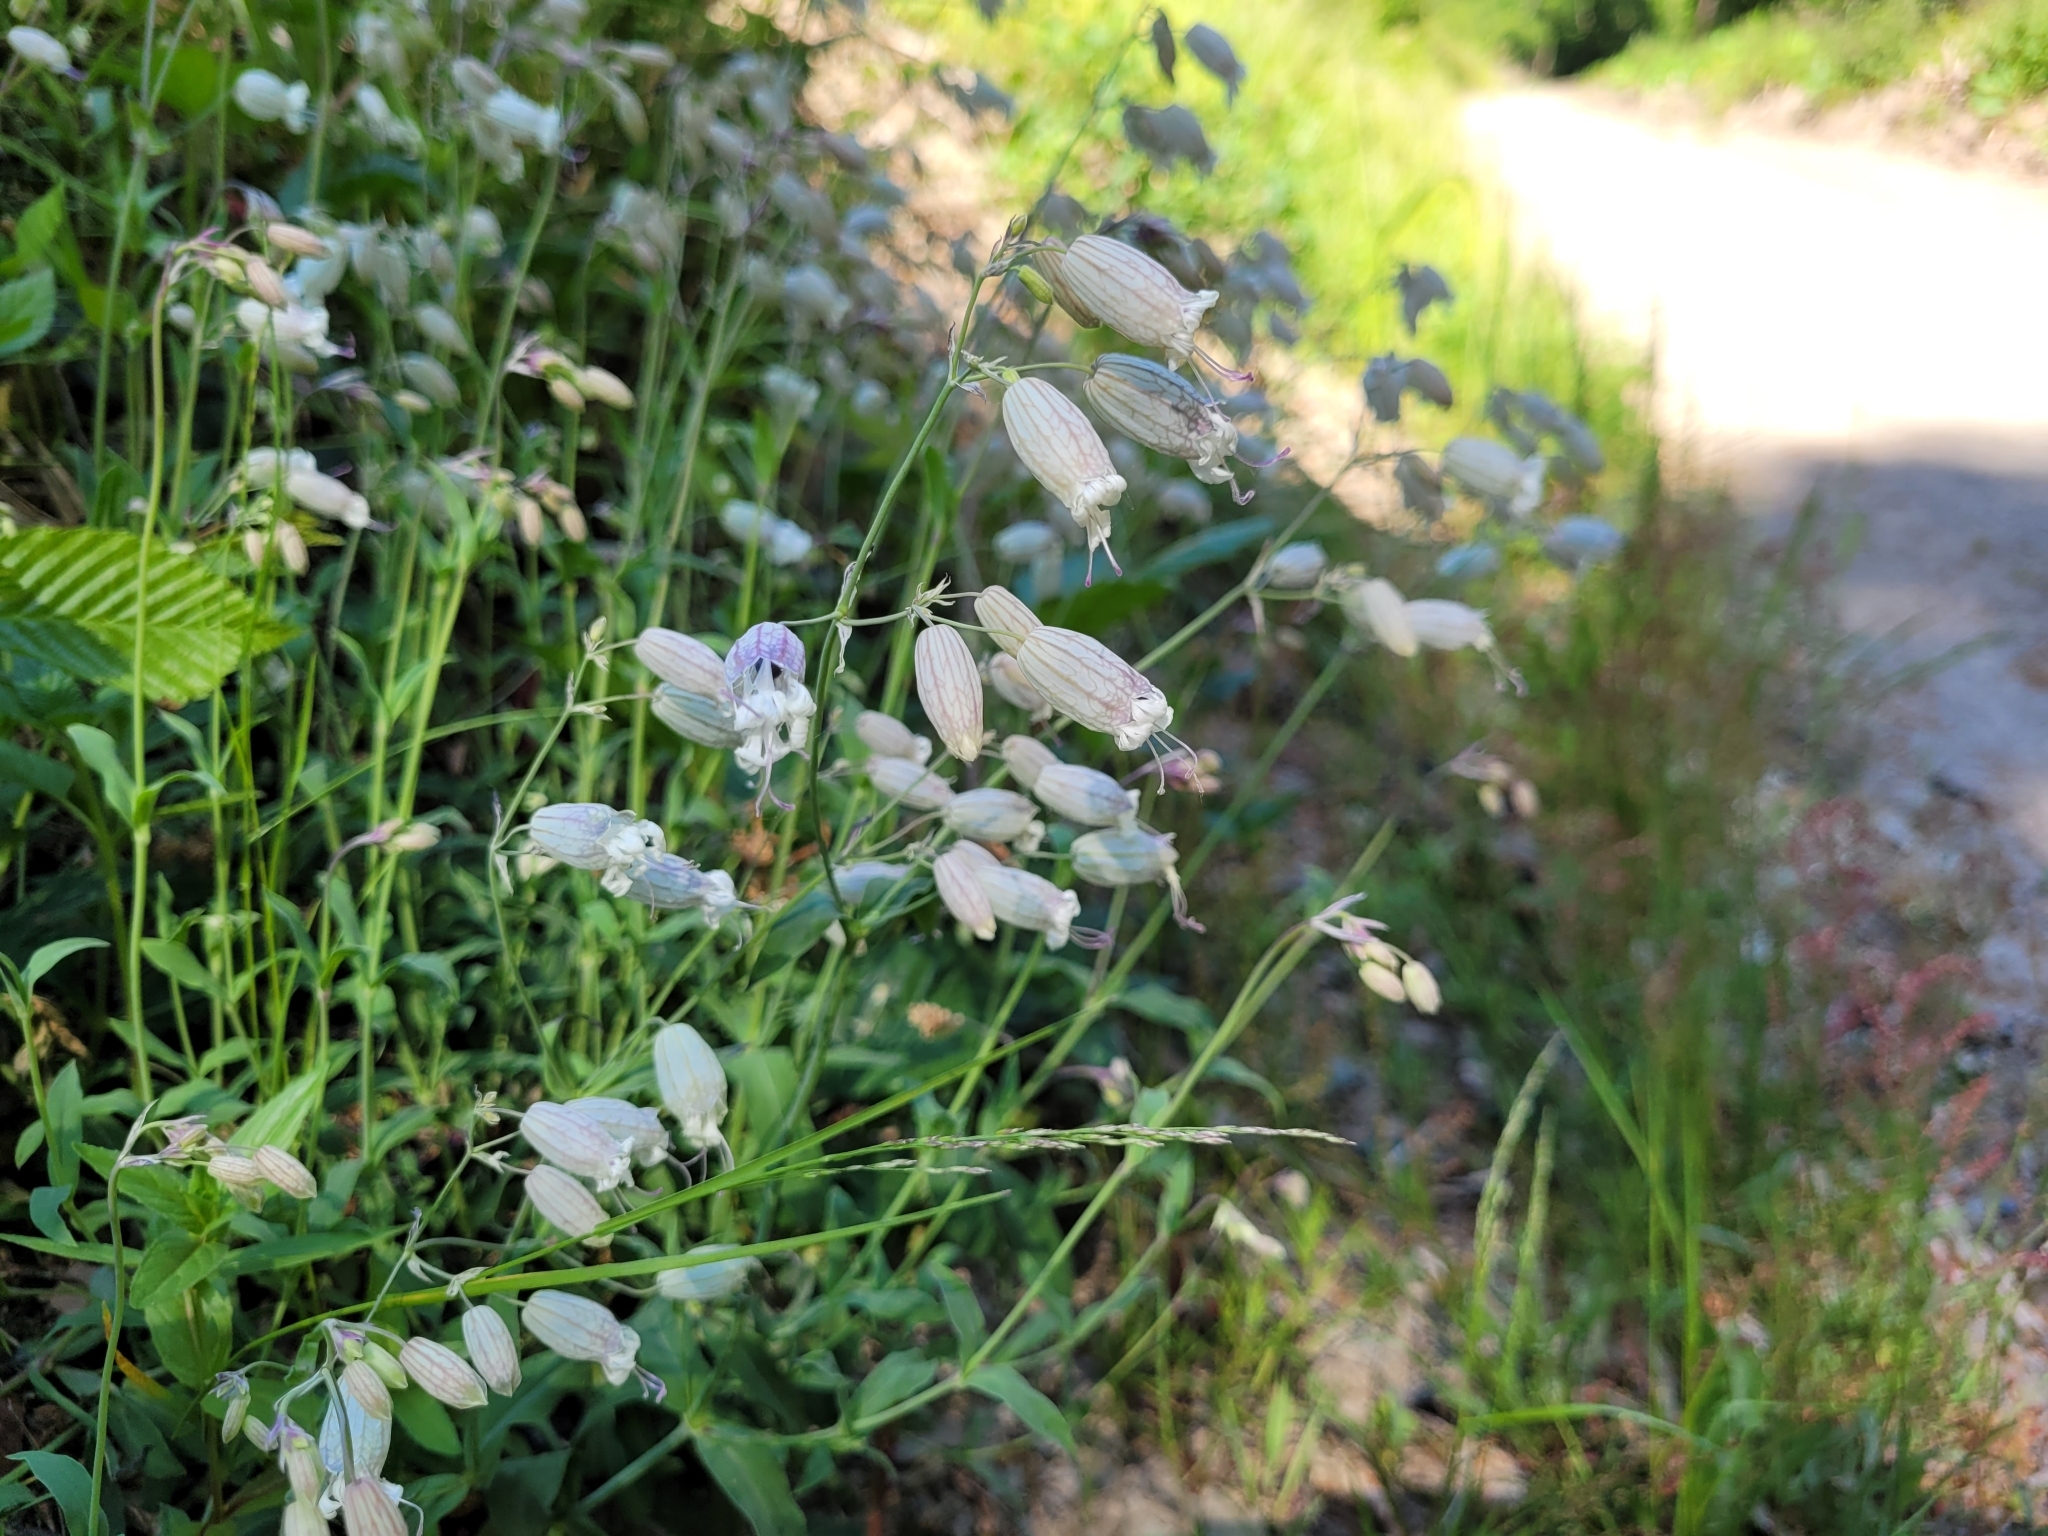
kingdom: Plantae
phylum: Tracheophyta
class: Magnoliopsida
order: Caryophyllales
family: Caryophyllaceae
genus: Silene
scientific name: Silene vulgaris
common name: Bladder campion
